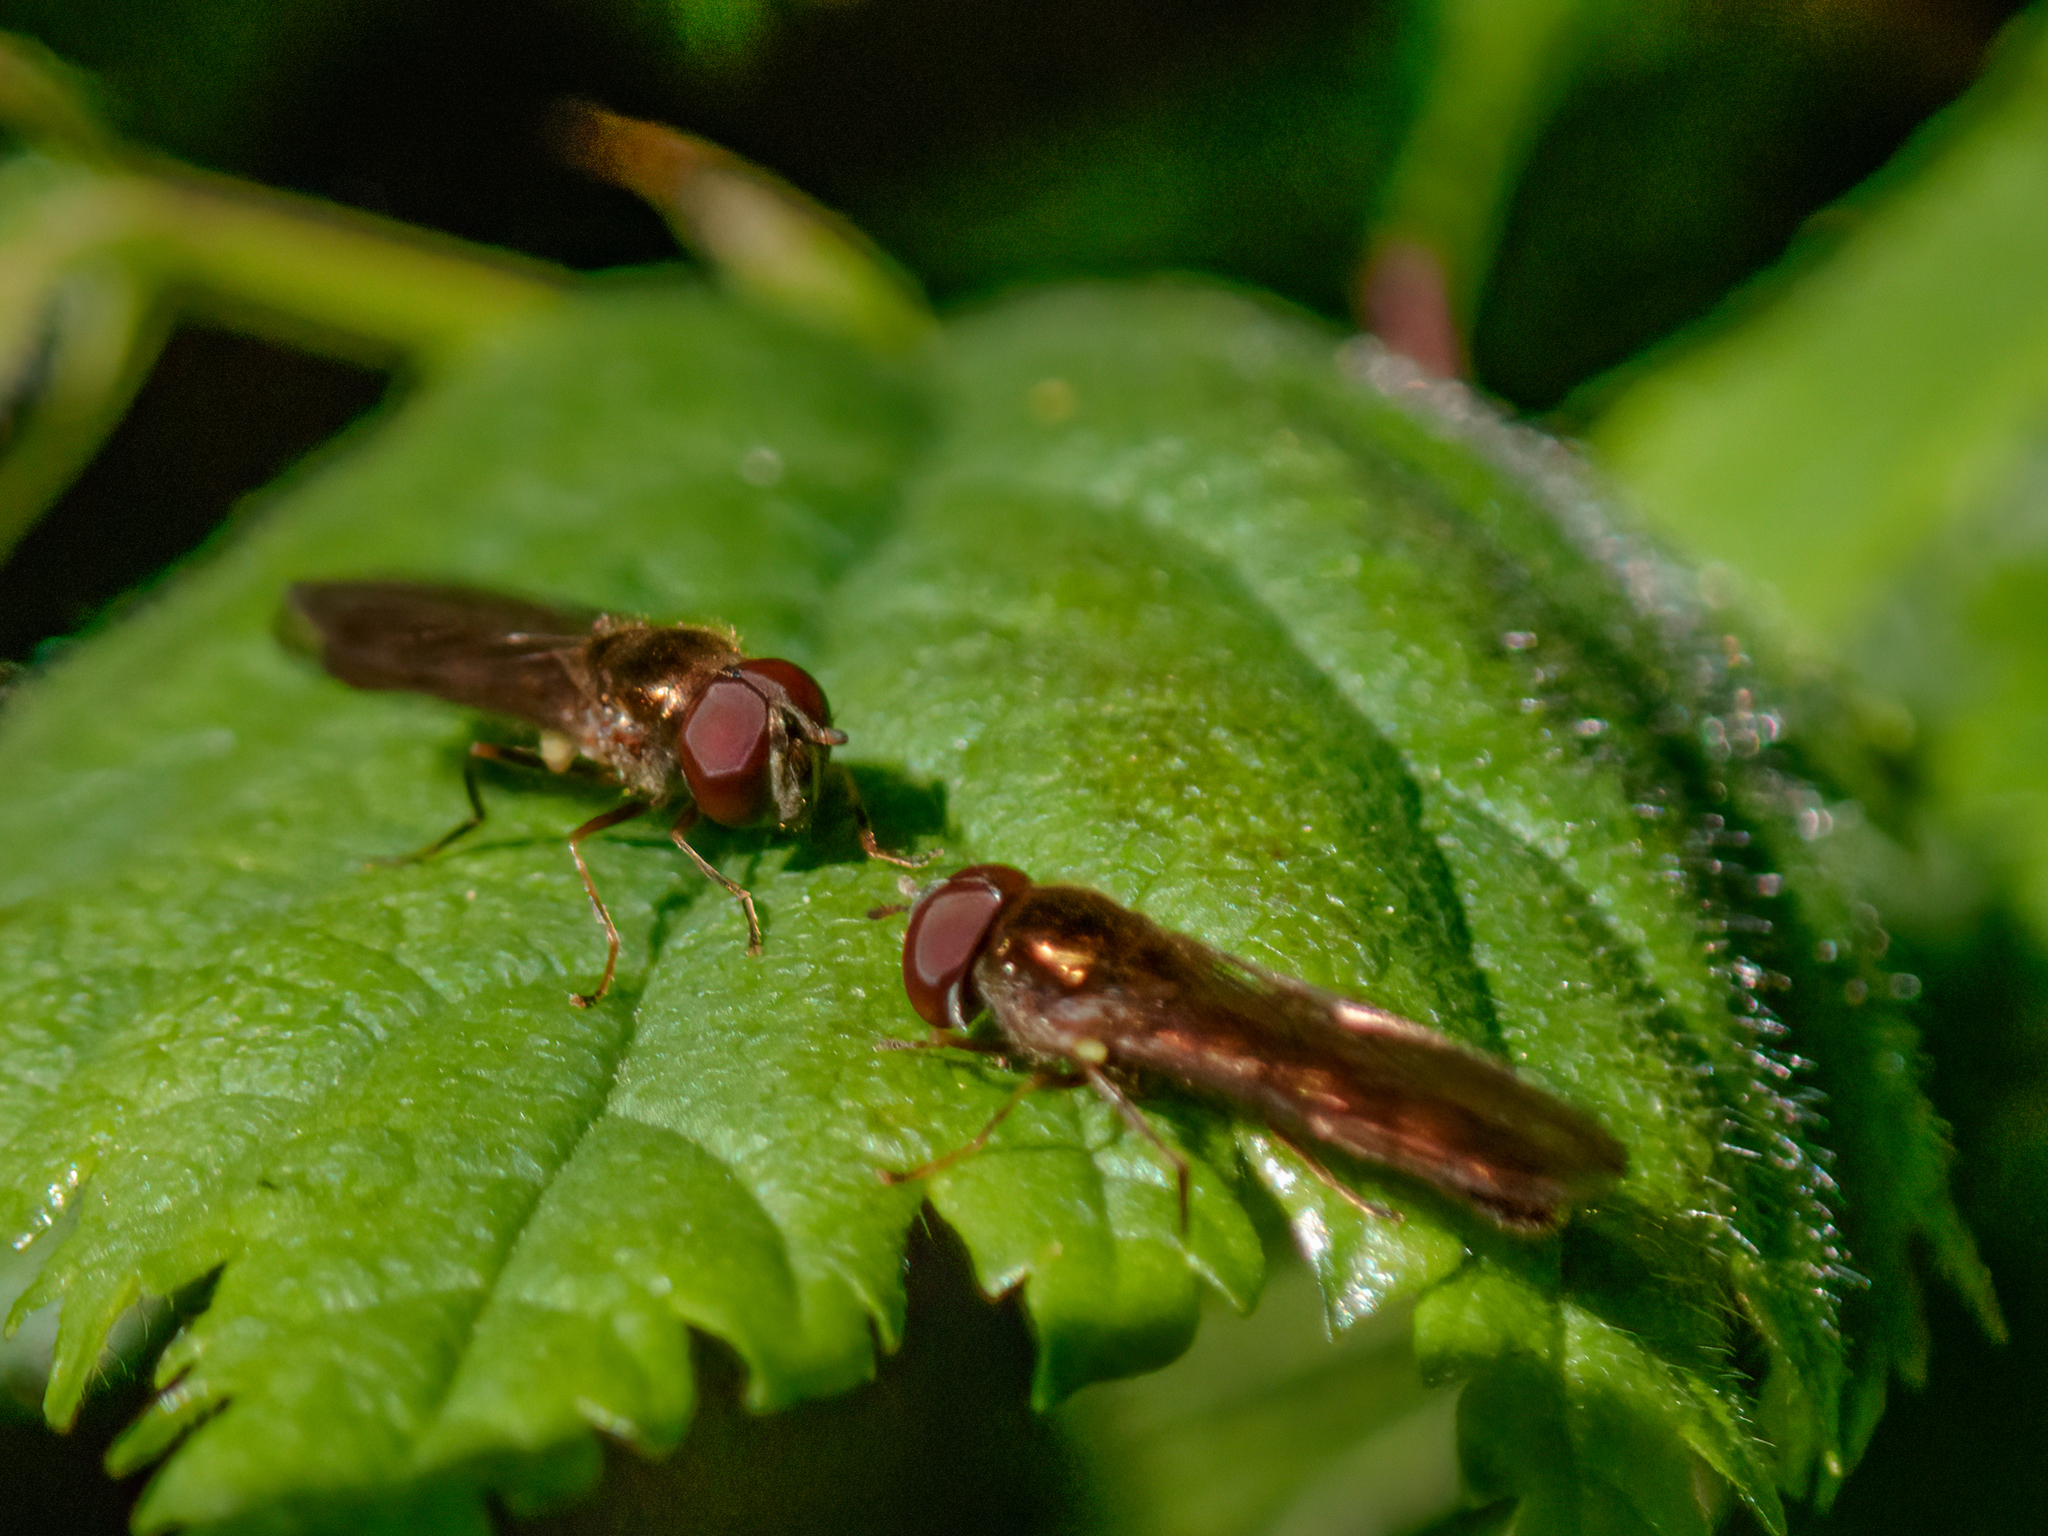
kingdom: Animalia
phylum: Arthropoda
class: Insecta
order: Diptera
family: Syrphidae
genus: Melanostoma
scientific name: Melanostoma scalare
